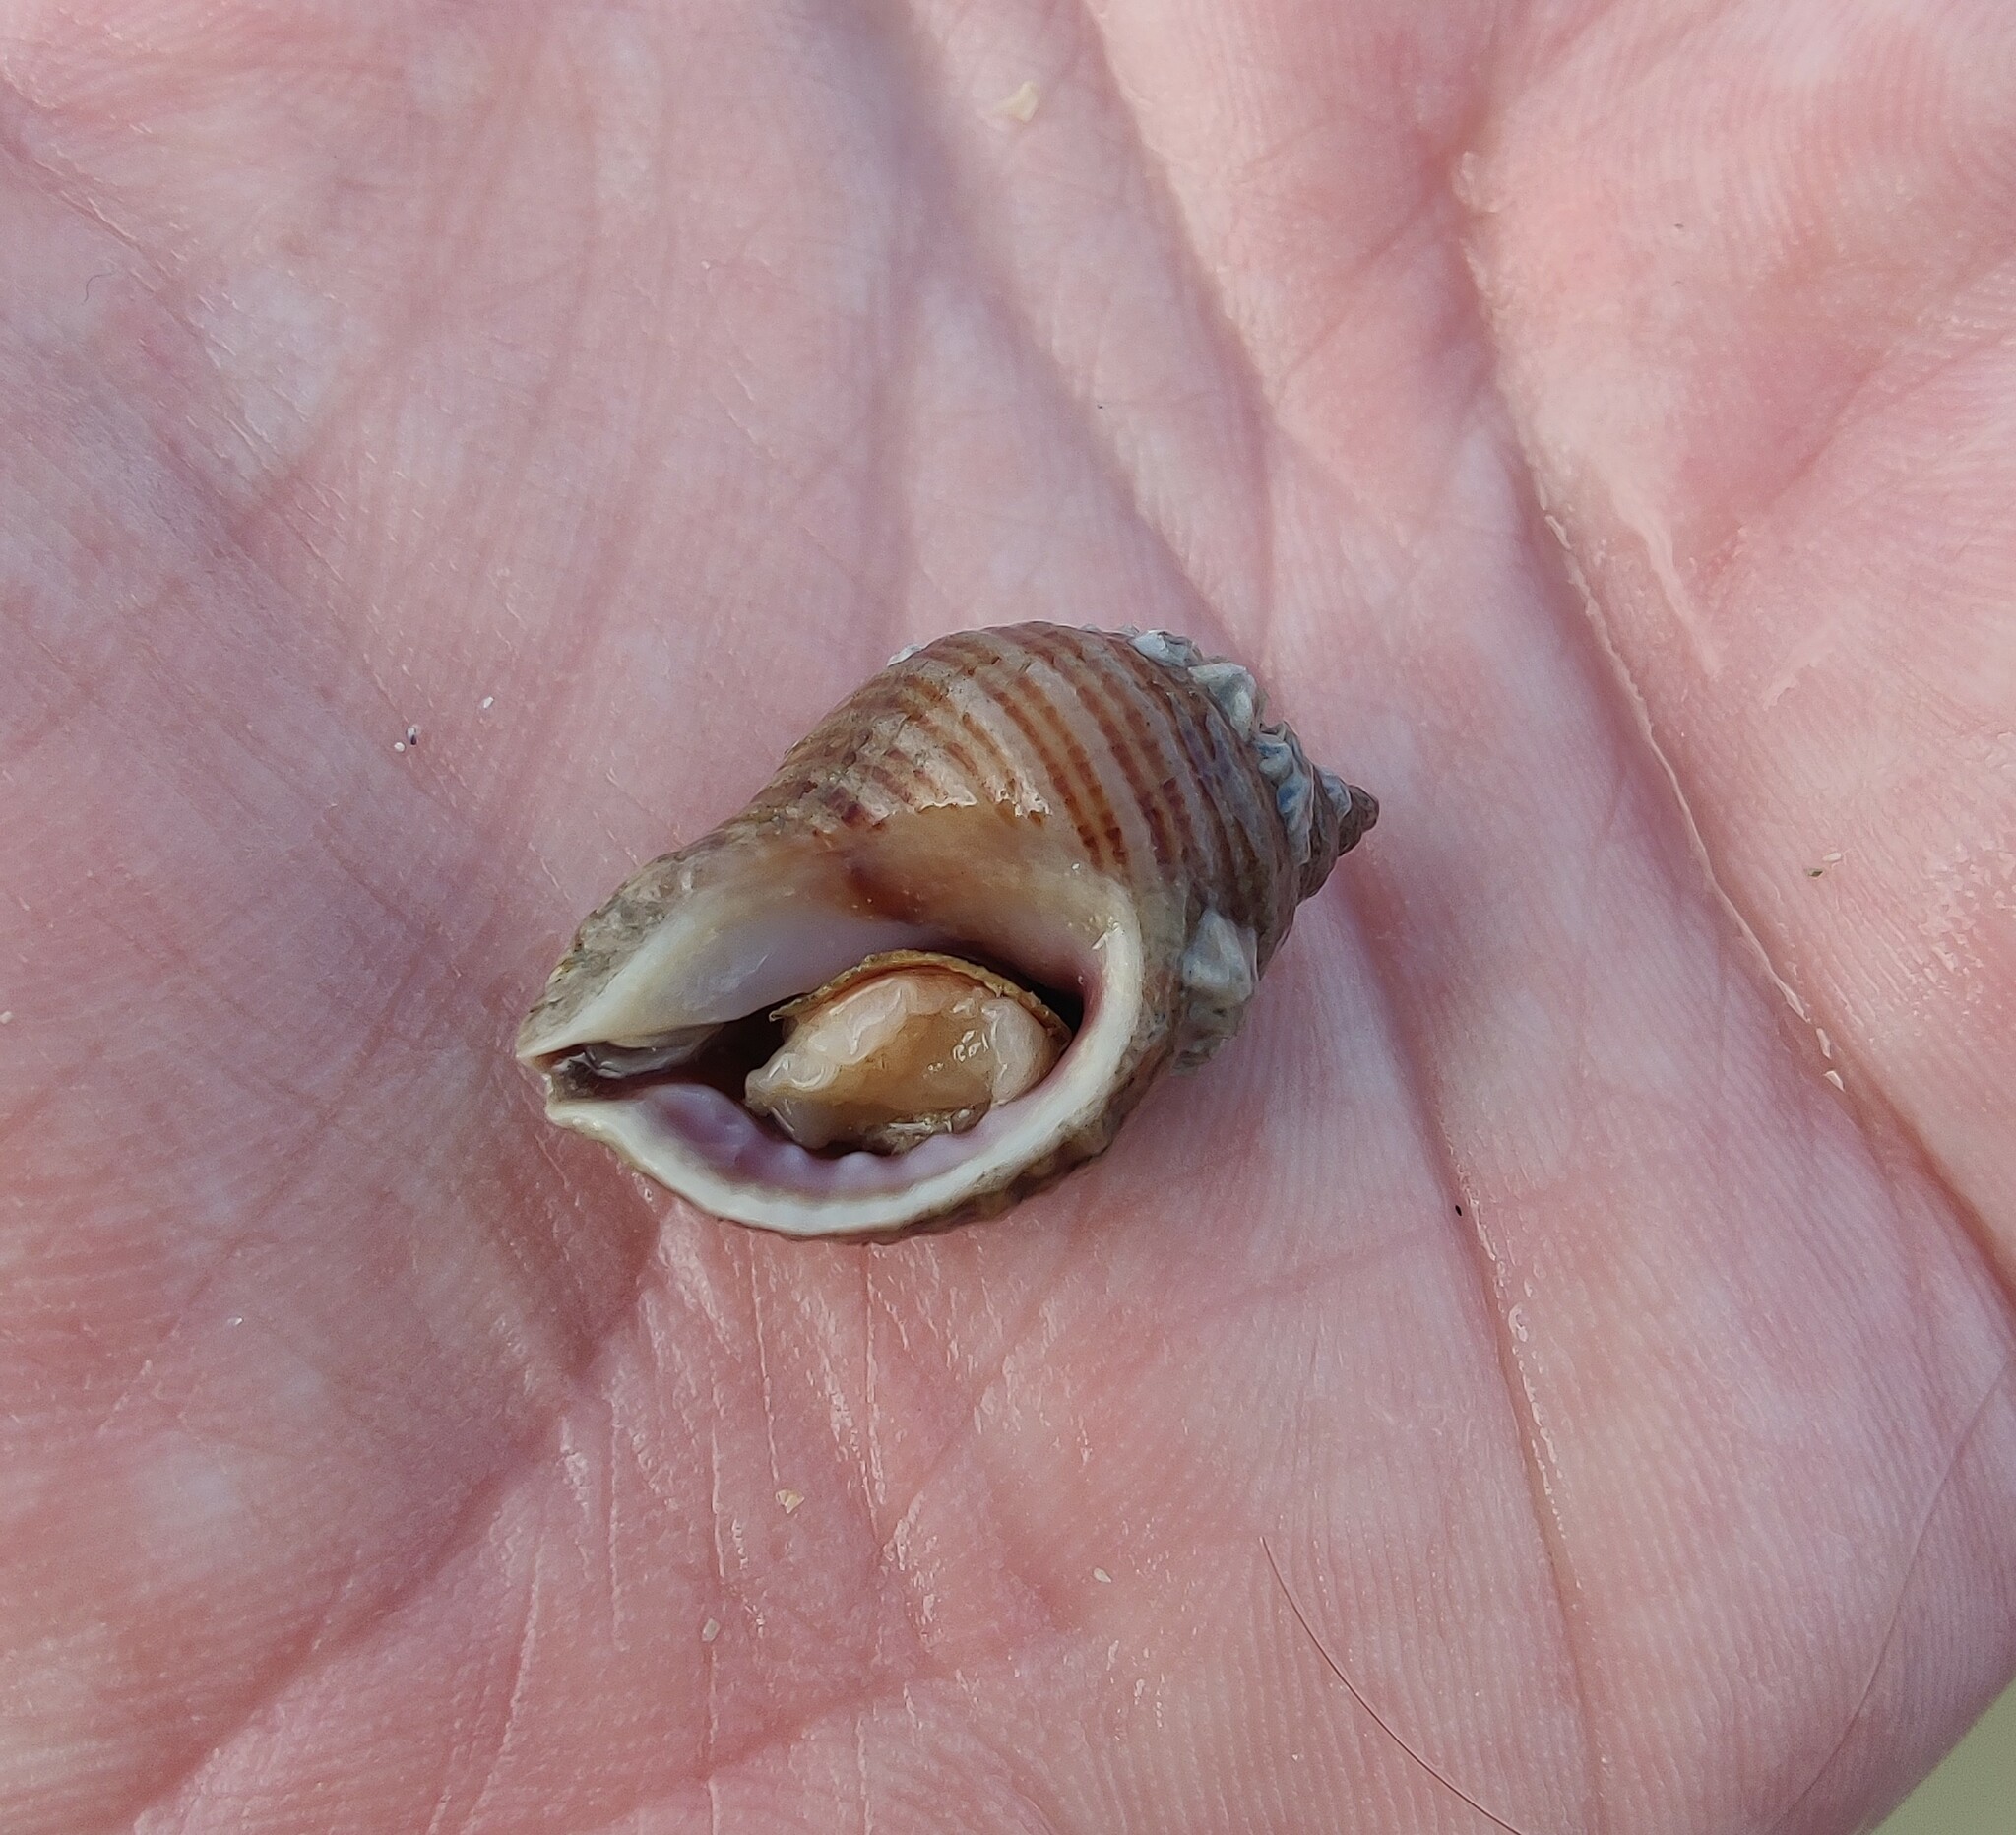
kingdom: Animalia
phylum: Mollusca
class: Gastropoda
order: Neogastropoda
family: Muricidae
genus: Nucella
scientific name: Nucella lapillus
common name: Dog whelk
